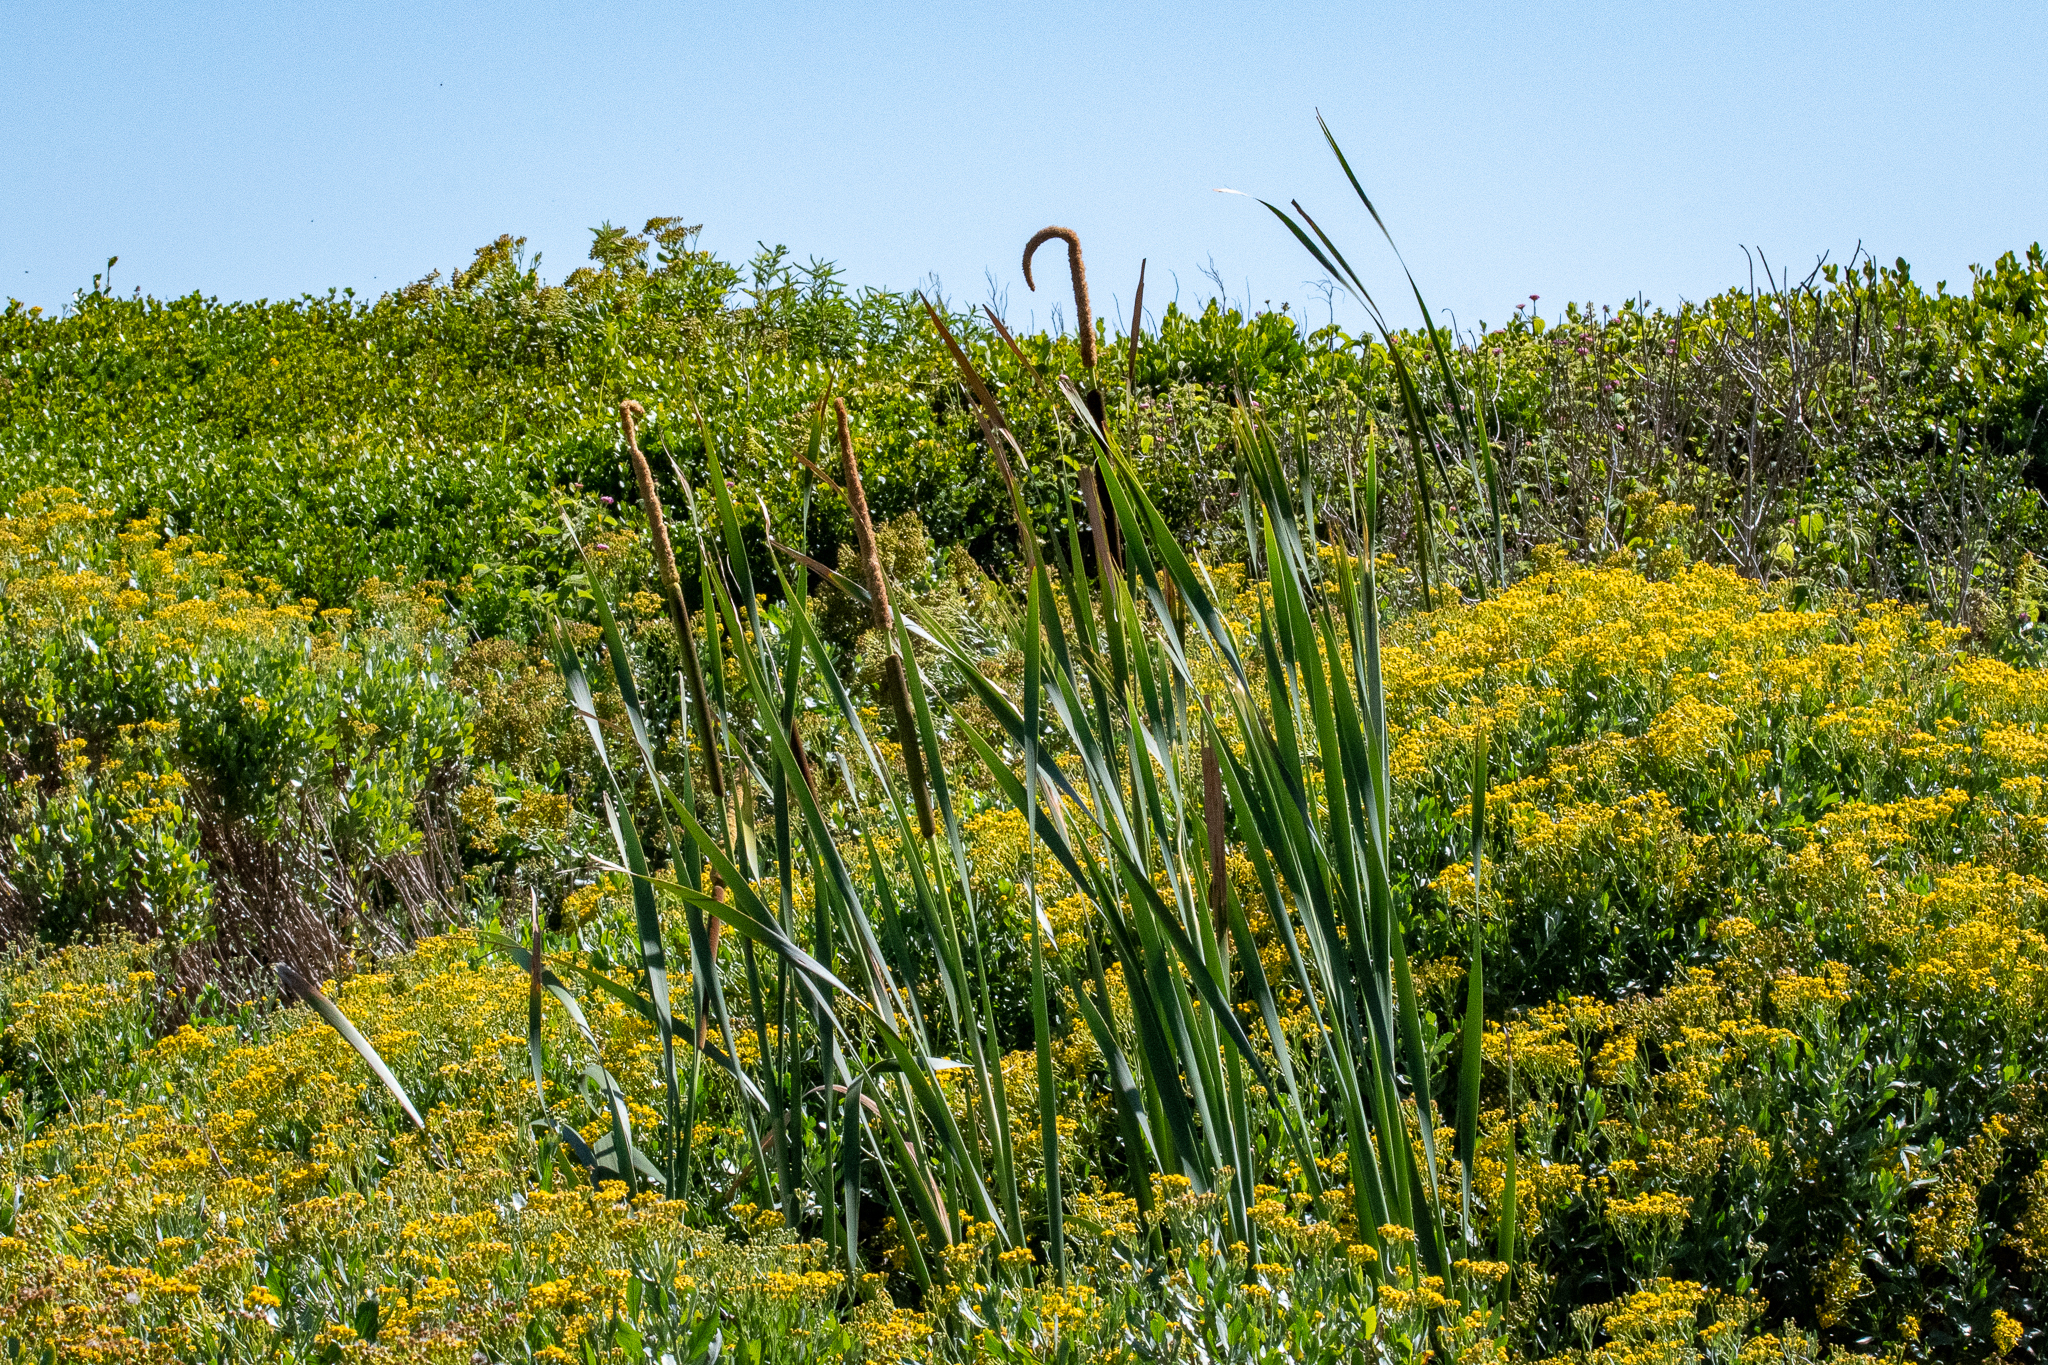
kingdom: Plantae
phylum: Tracheophyta
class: Liliopsida
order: Poales
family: Typhaceae
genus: Typha
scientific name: Typha capensis
